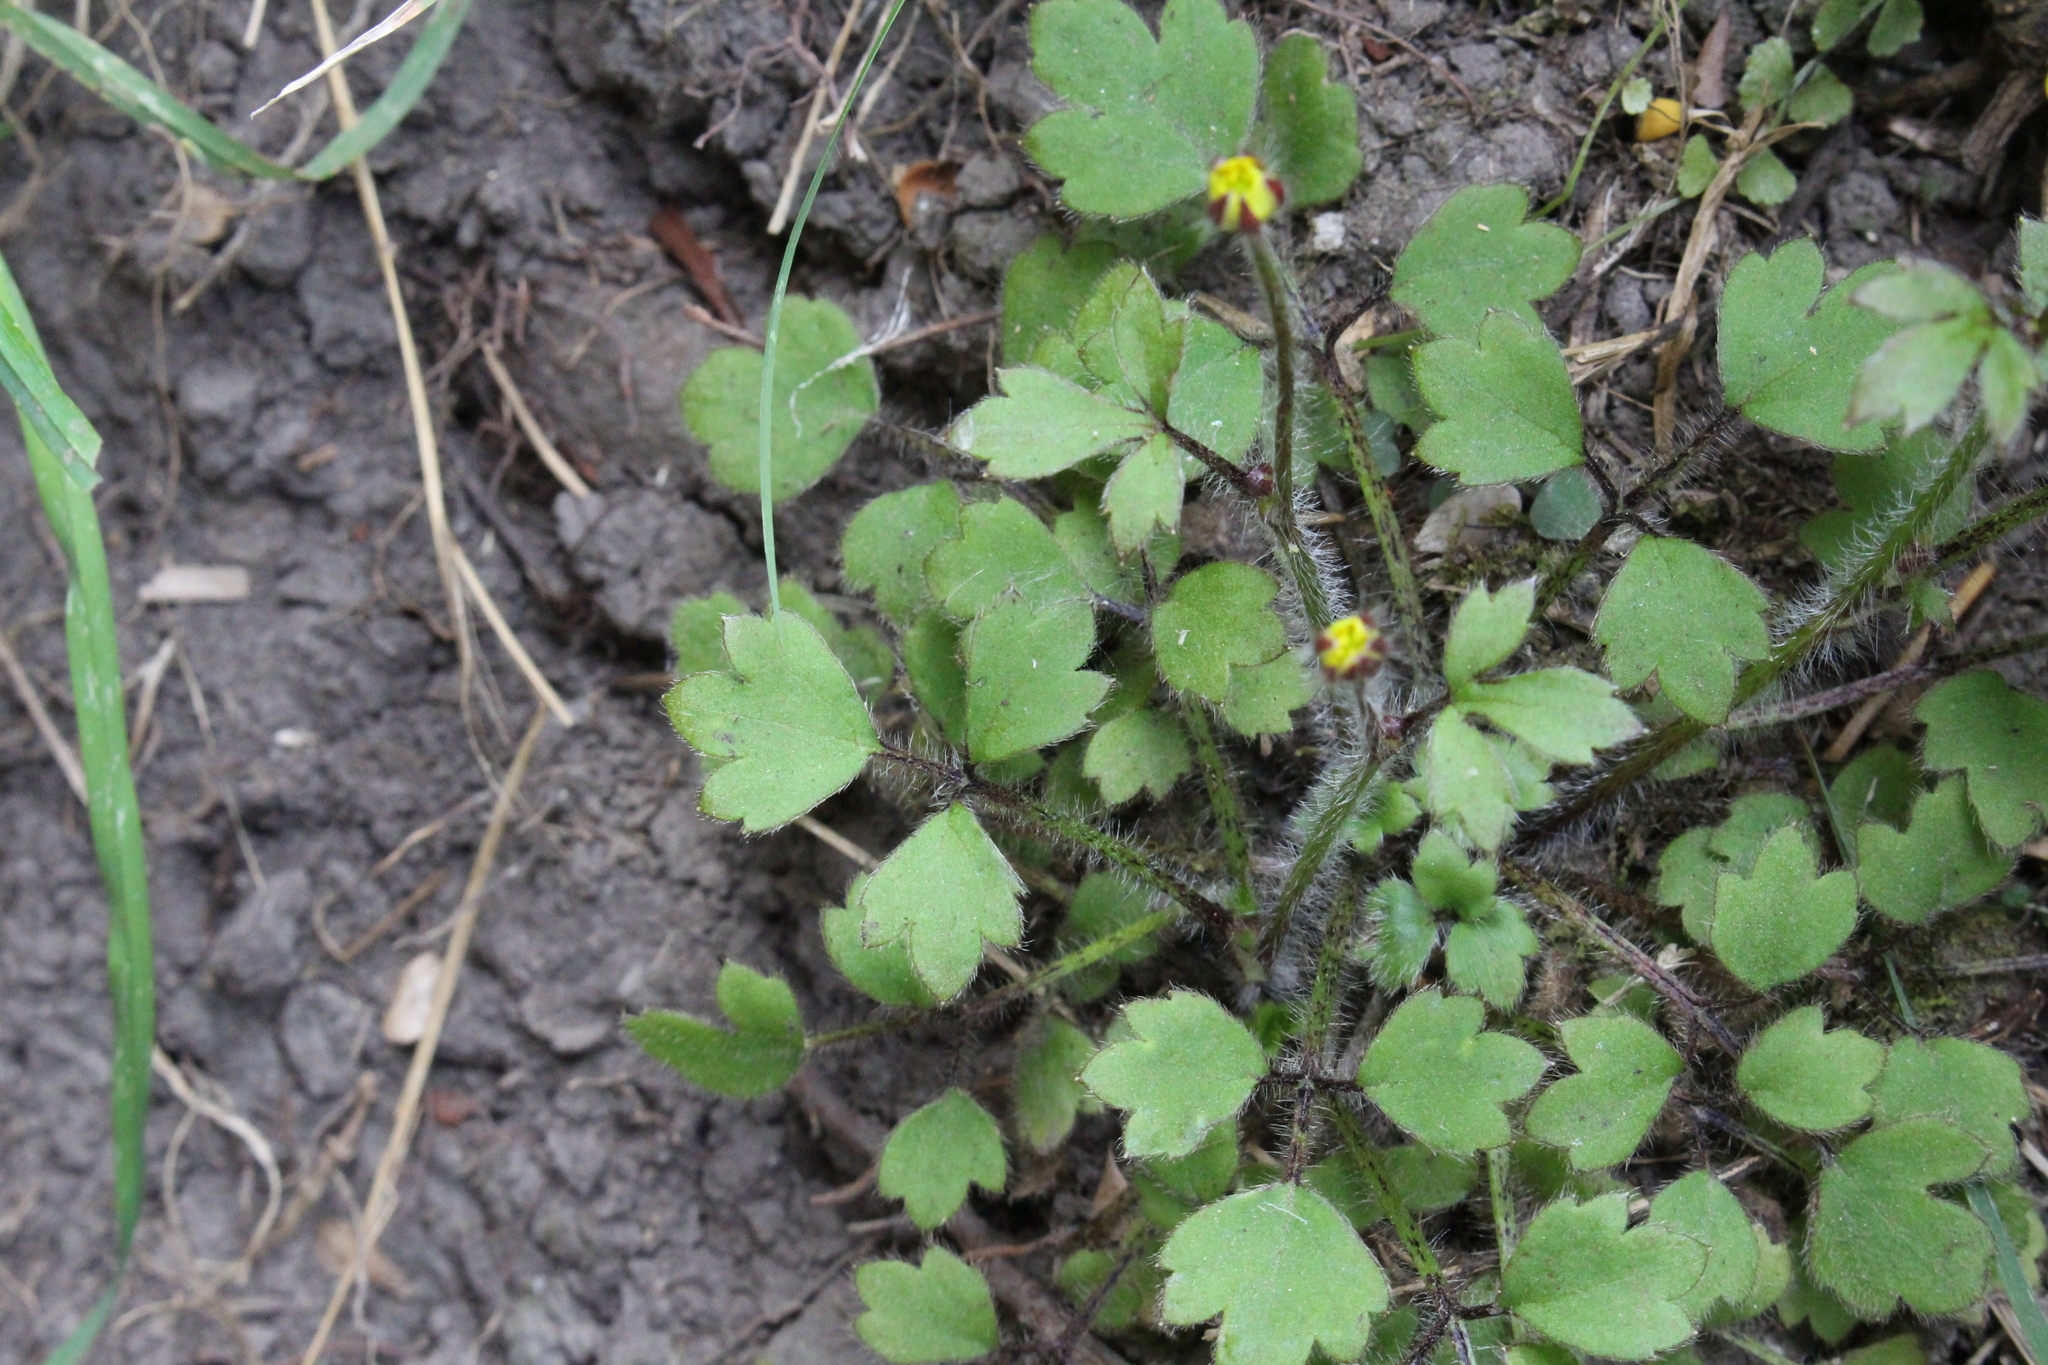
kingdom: Plantae
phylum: Tracheophyta
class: Magnoliopsida
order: Ranunculales
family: Ranunculaceae
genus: Ranunculus
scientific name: Ranunculus reflexus
